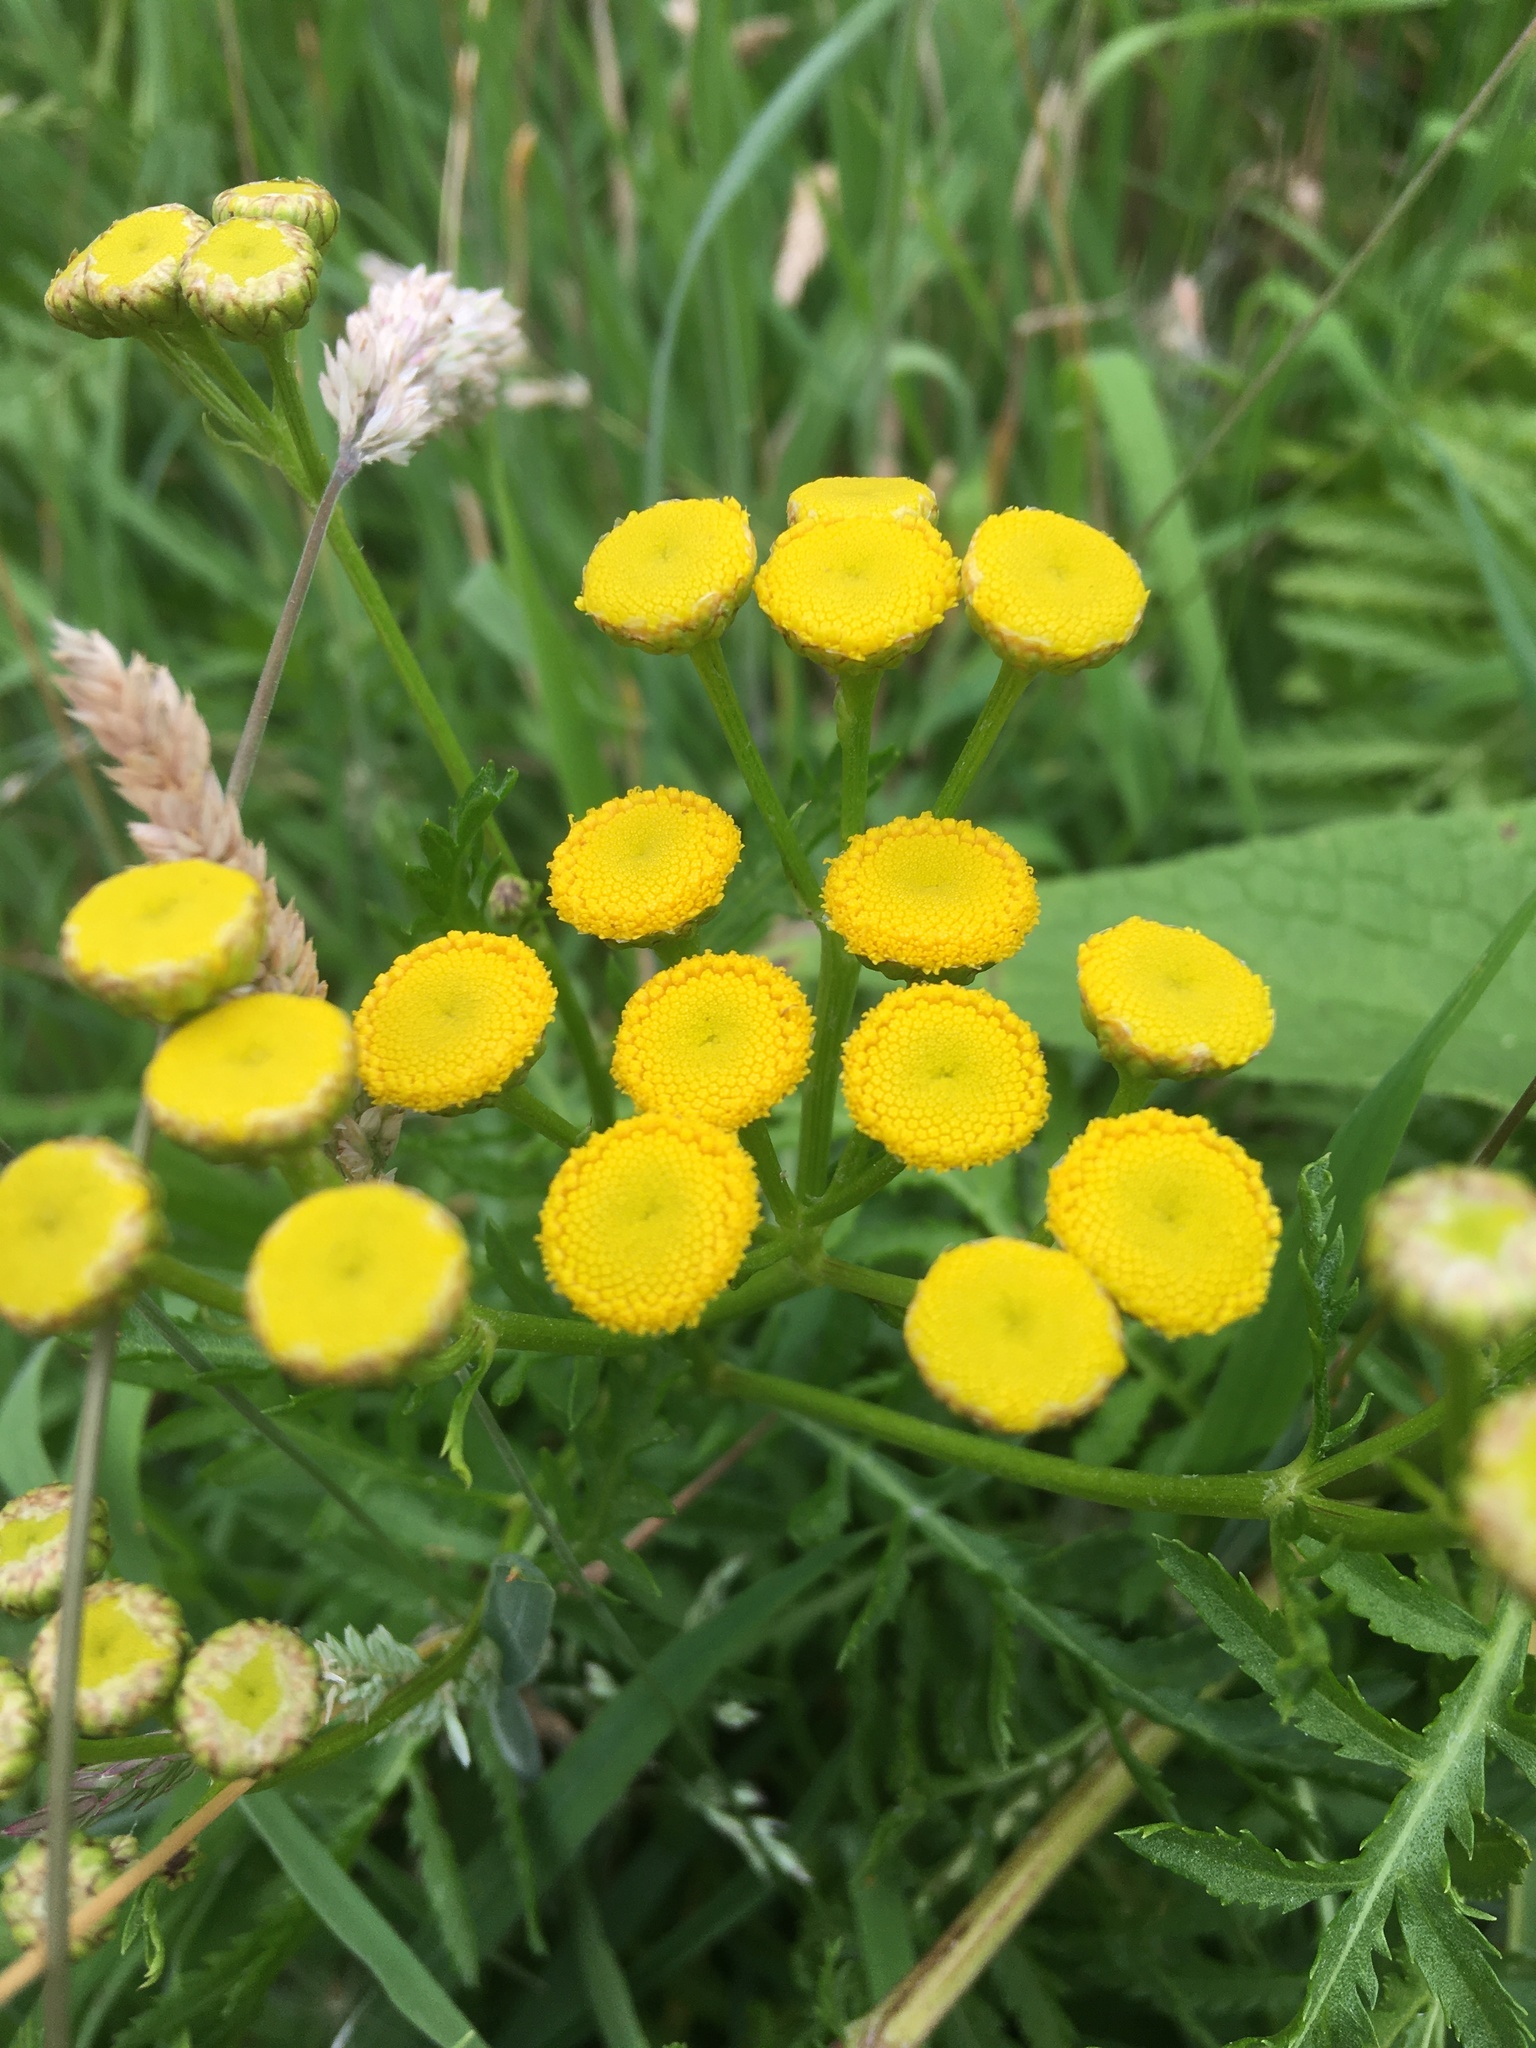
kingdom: Plantae
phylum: Tracheophyta
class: Magnoliopsida
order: Asterales
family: Asteraceae
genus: Tanacetum
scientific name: Tanacetum vulgare
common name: Common tansy
